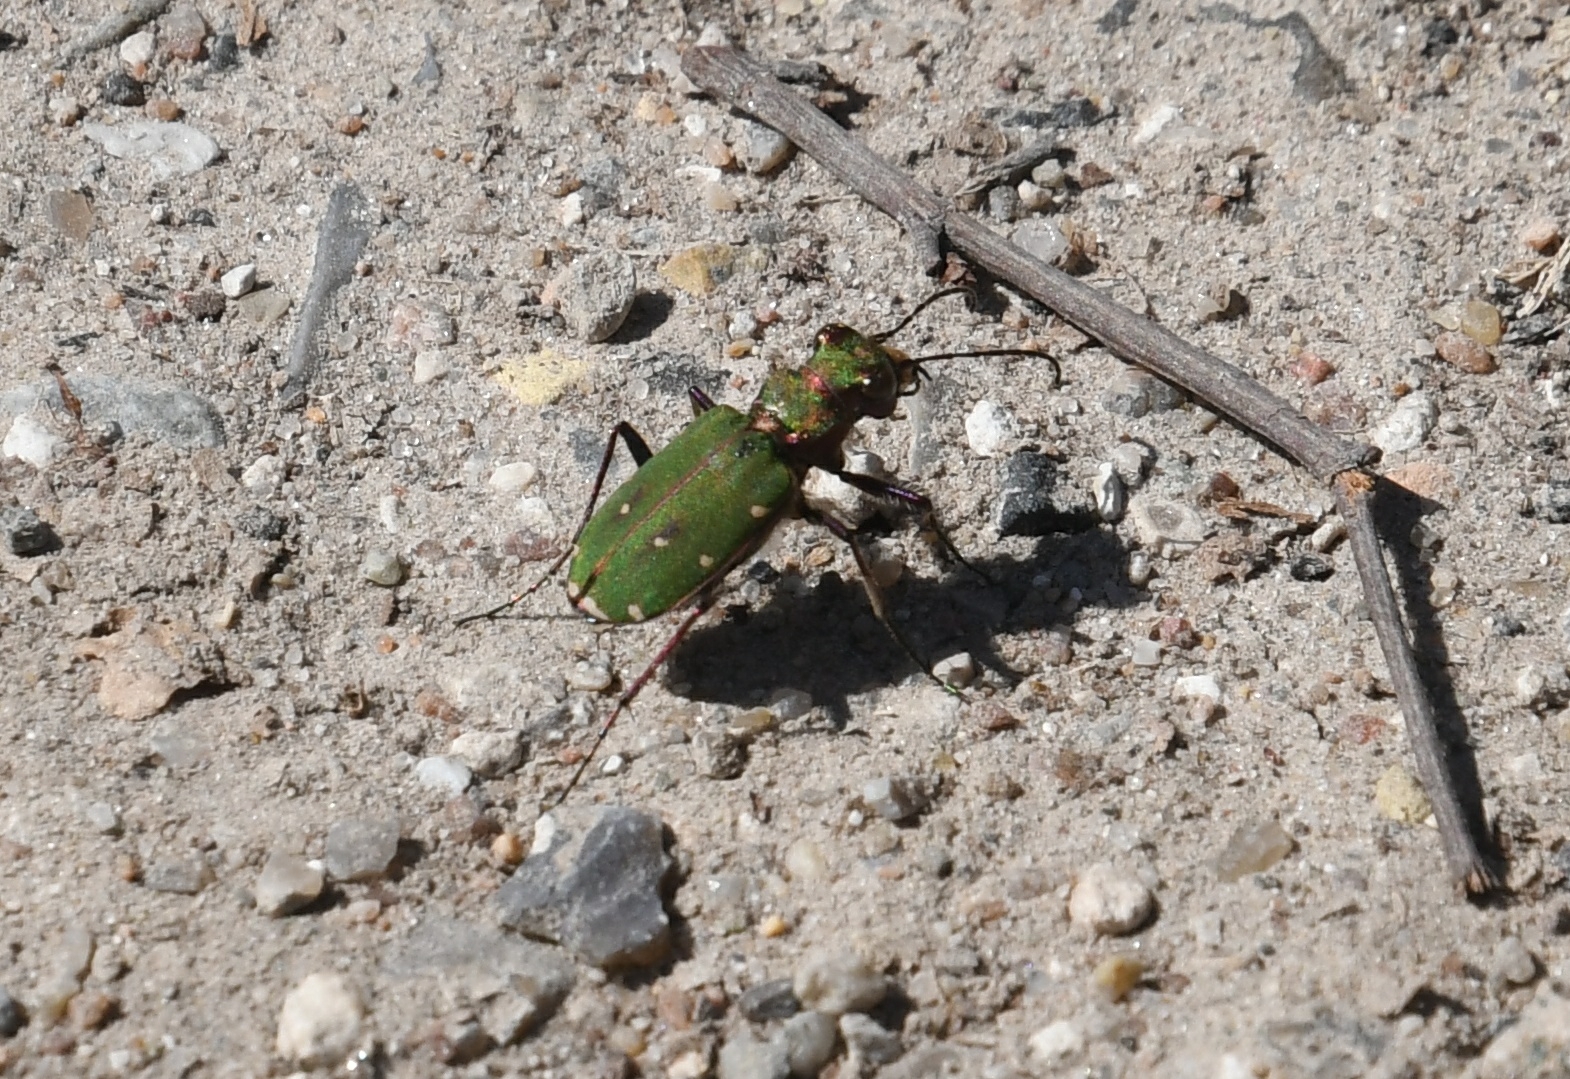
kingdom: Animalia
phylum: Arthropoda
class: Insecta
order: Coleoptera
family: Carabidae
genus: Cicindela
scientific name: Cicindela campestris
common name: Common tiger beetle
